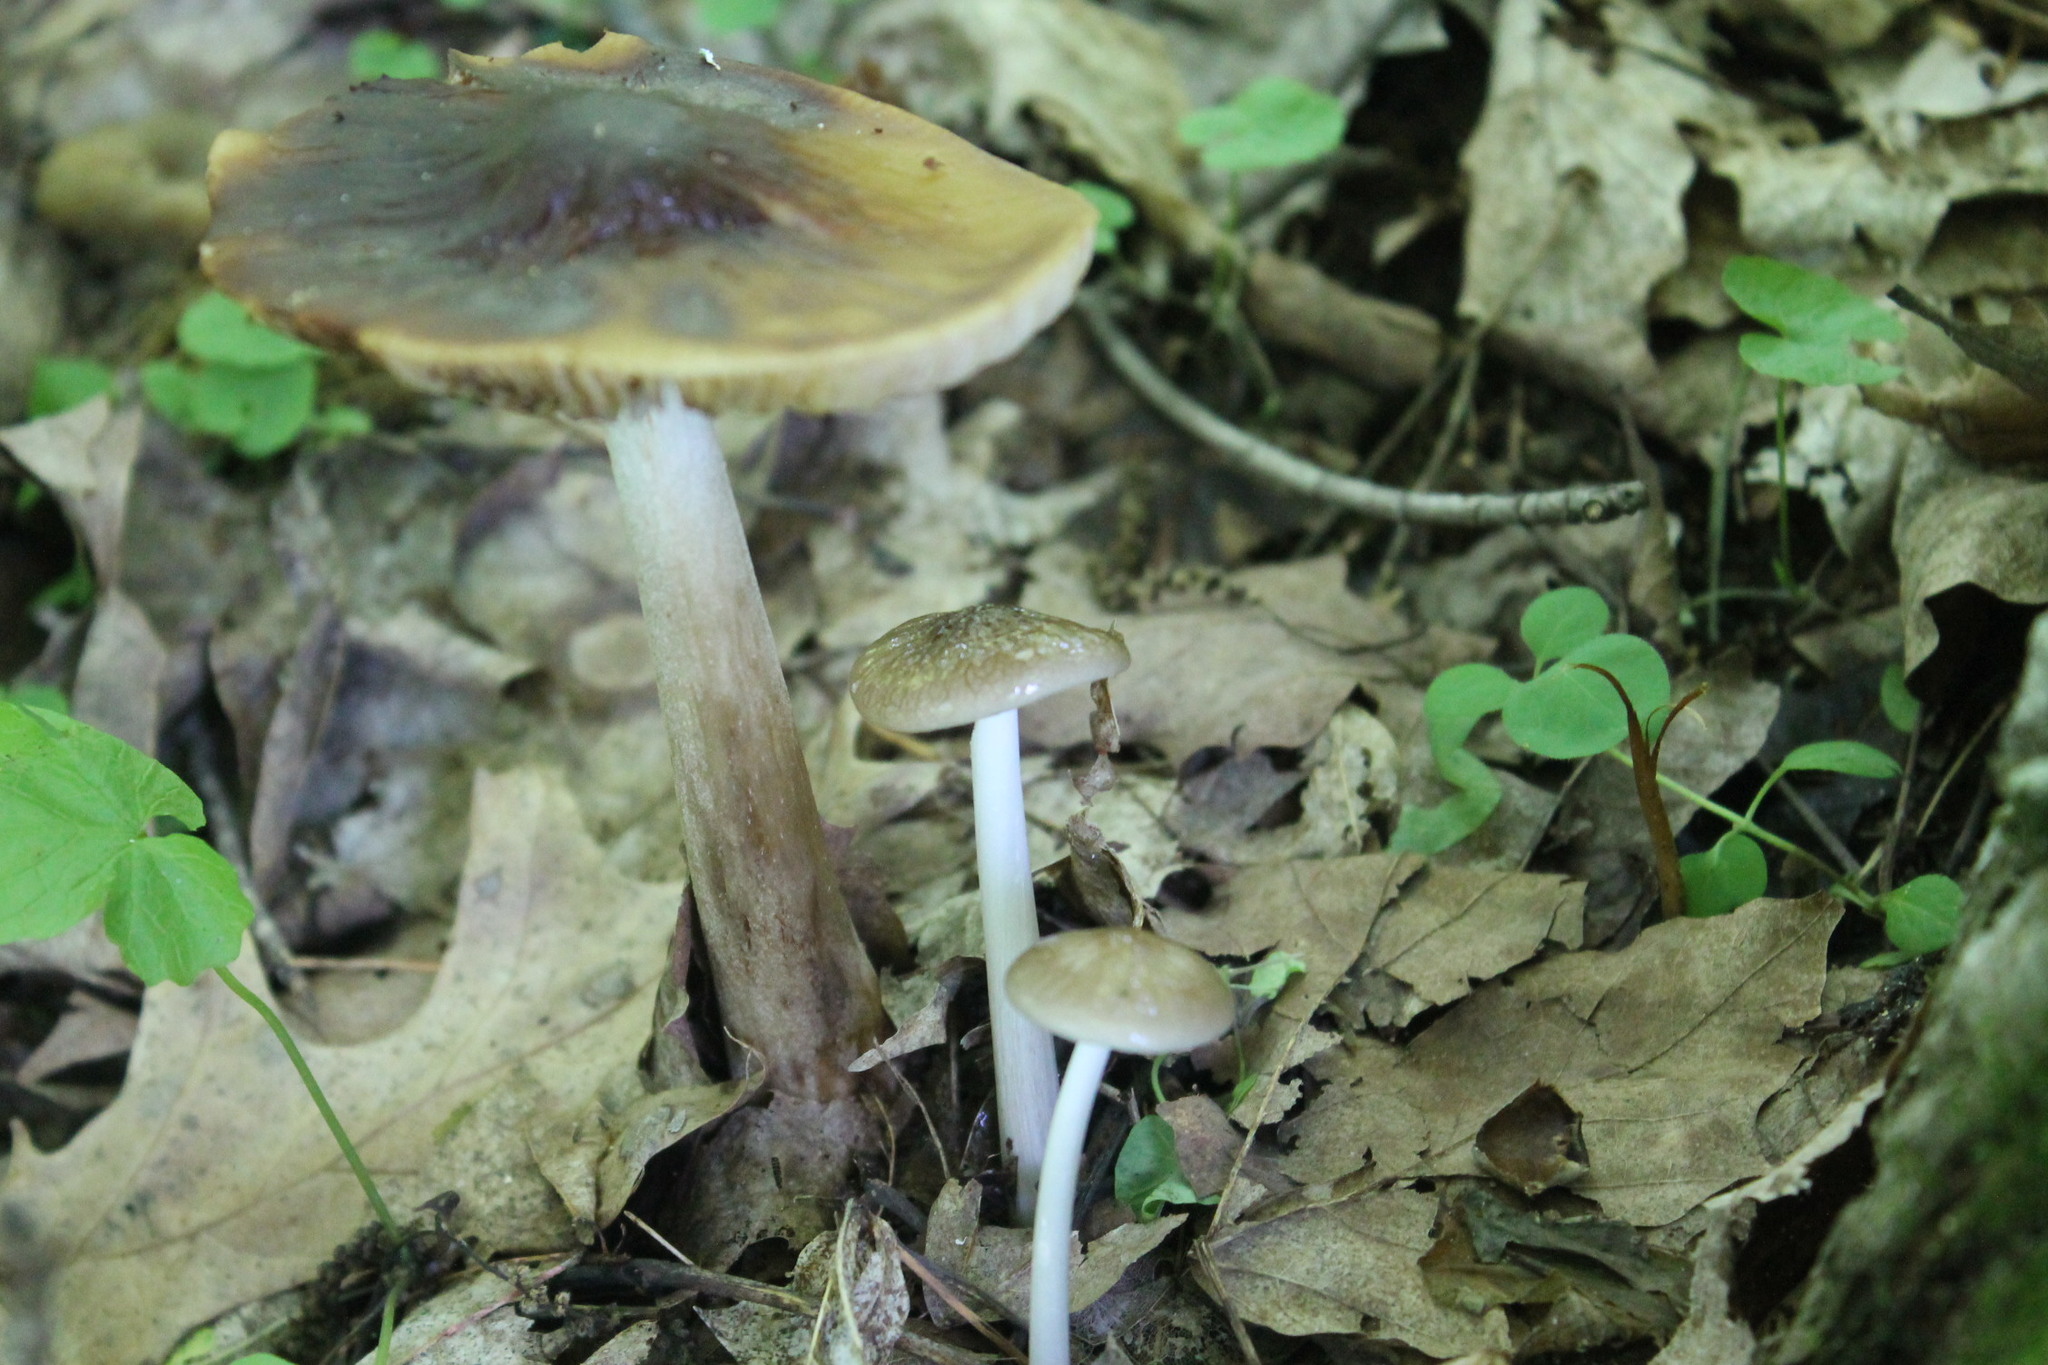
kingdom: Fungi
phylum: Basidiomycota
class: Agaricomycetes
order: Agaricales
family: Physalacriaceae
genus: Hymenopellis
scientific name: Hymenopellis radicata
